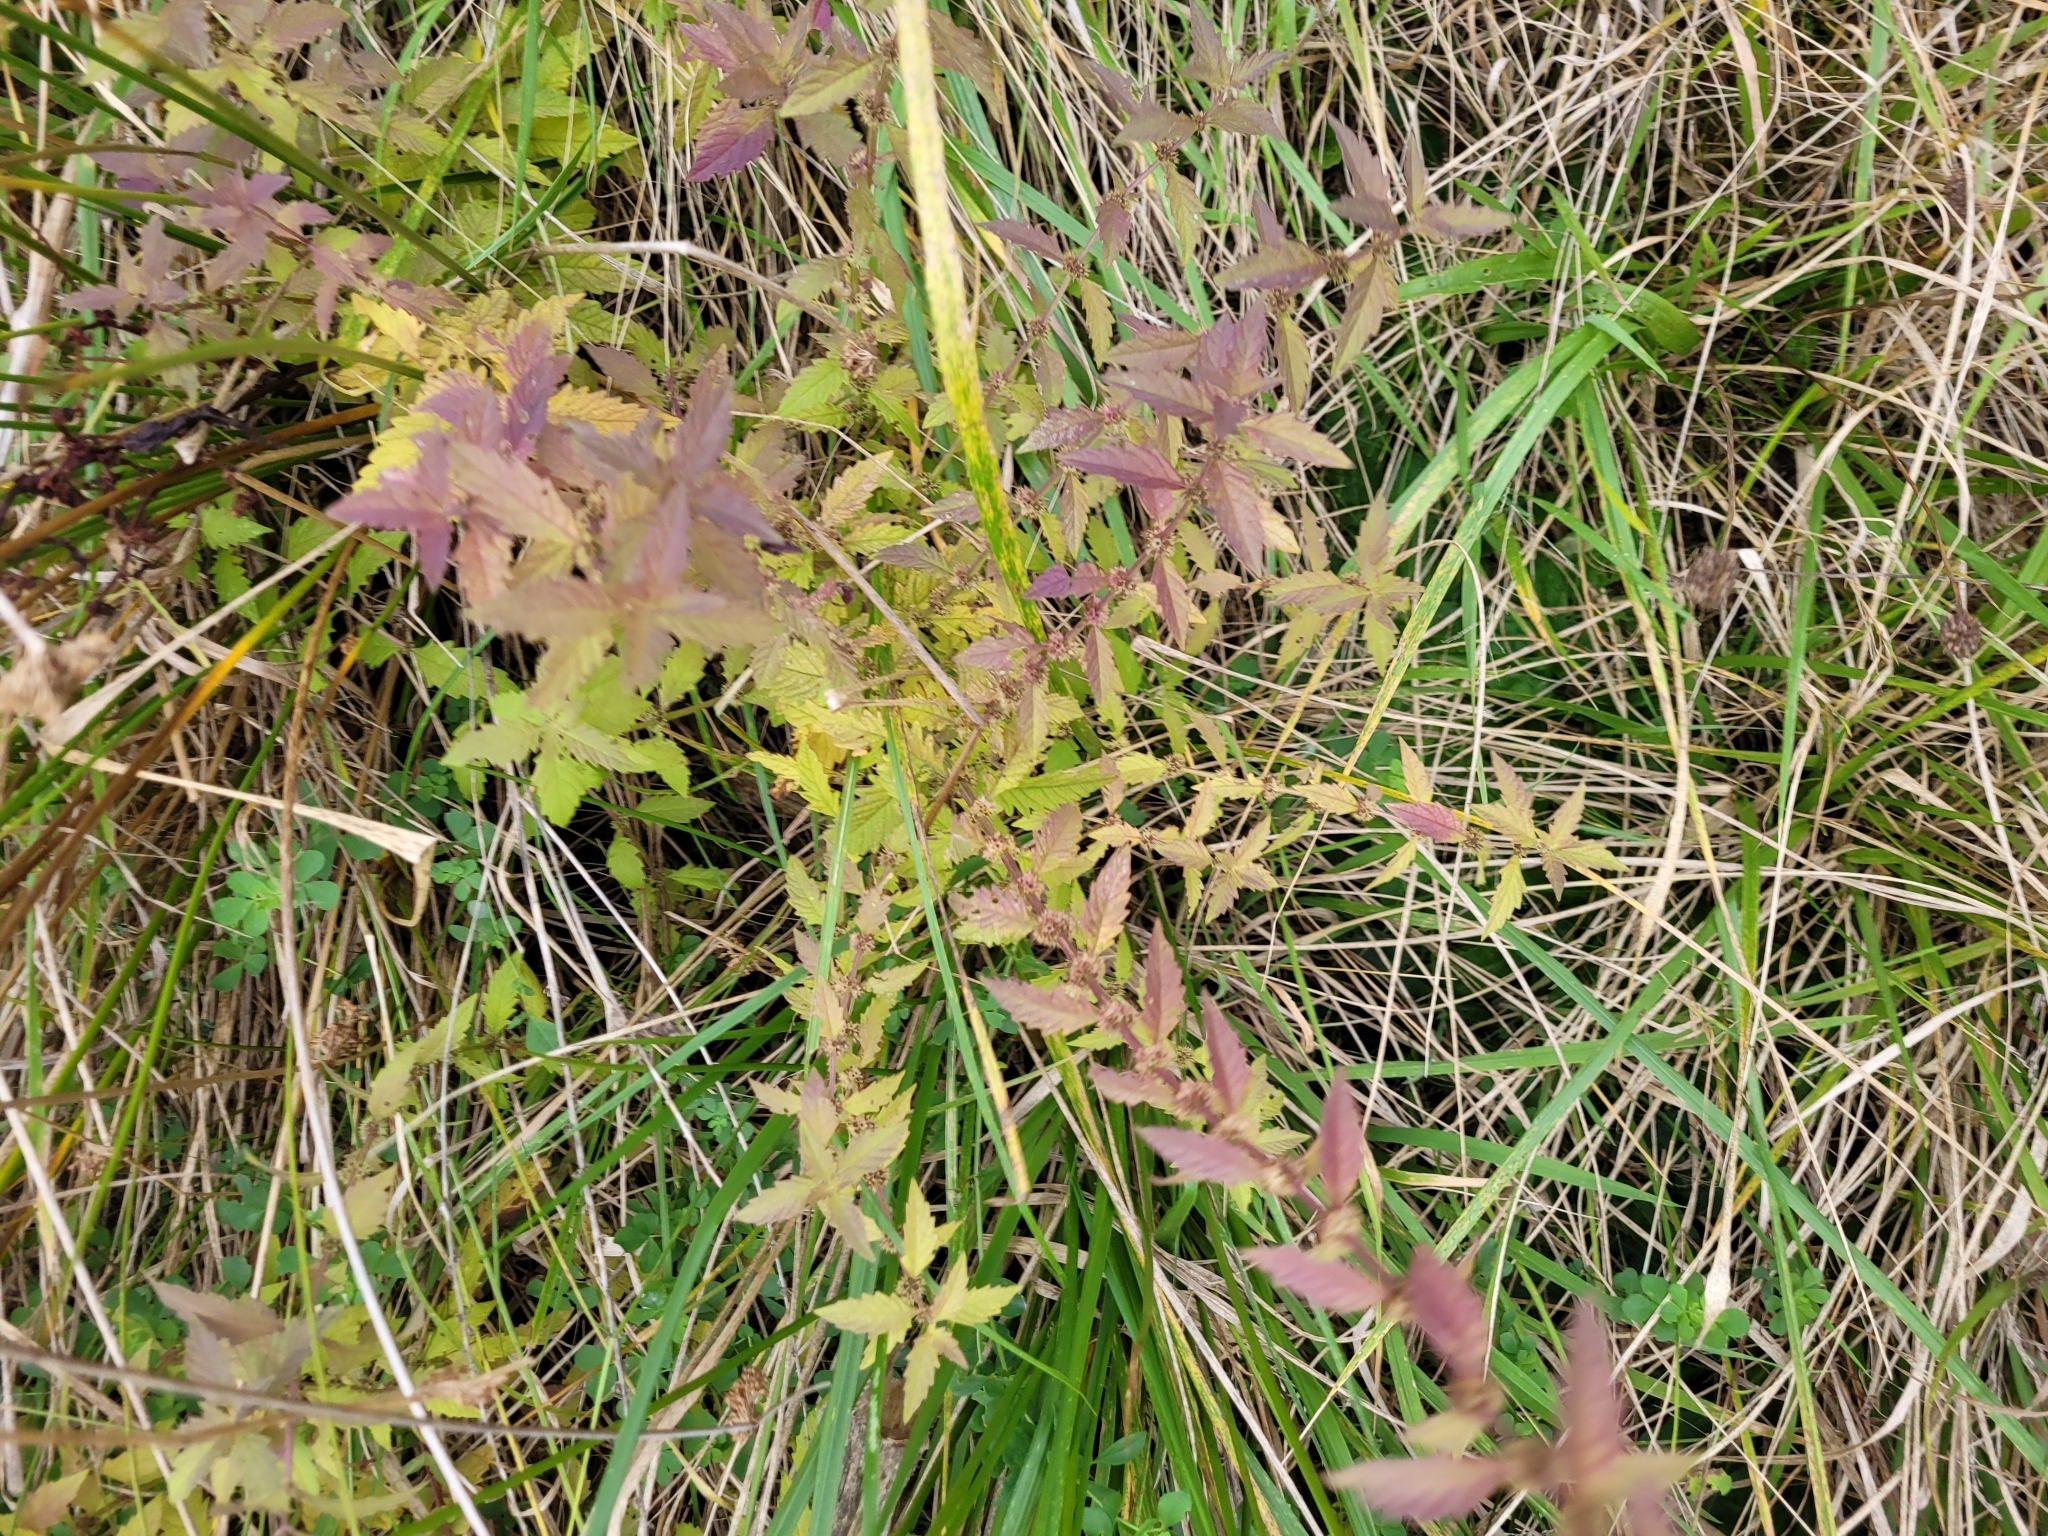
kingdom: Plantae
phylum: Tracheophyta
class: Magnoliopsida
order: Lamiales
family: Lamiaceae
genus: Lycopus
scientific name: Lycopus europaeus
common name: European bugleweed
